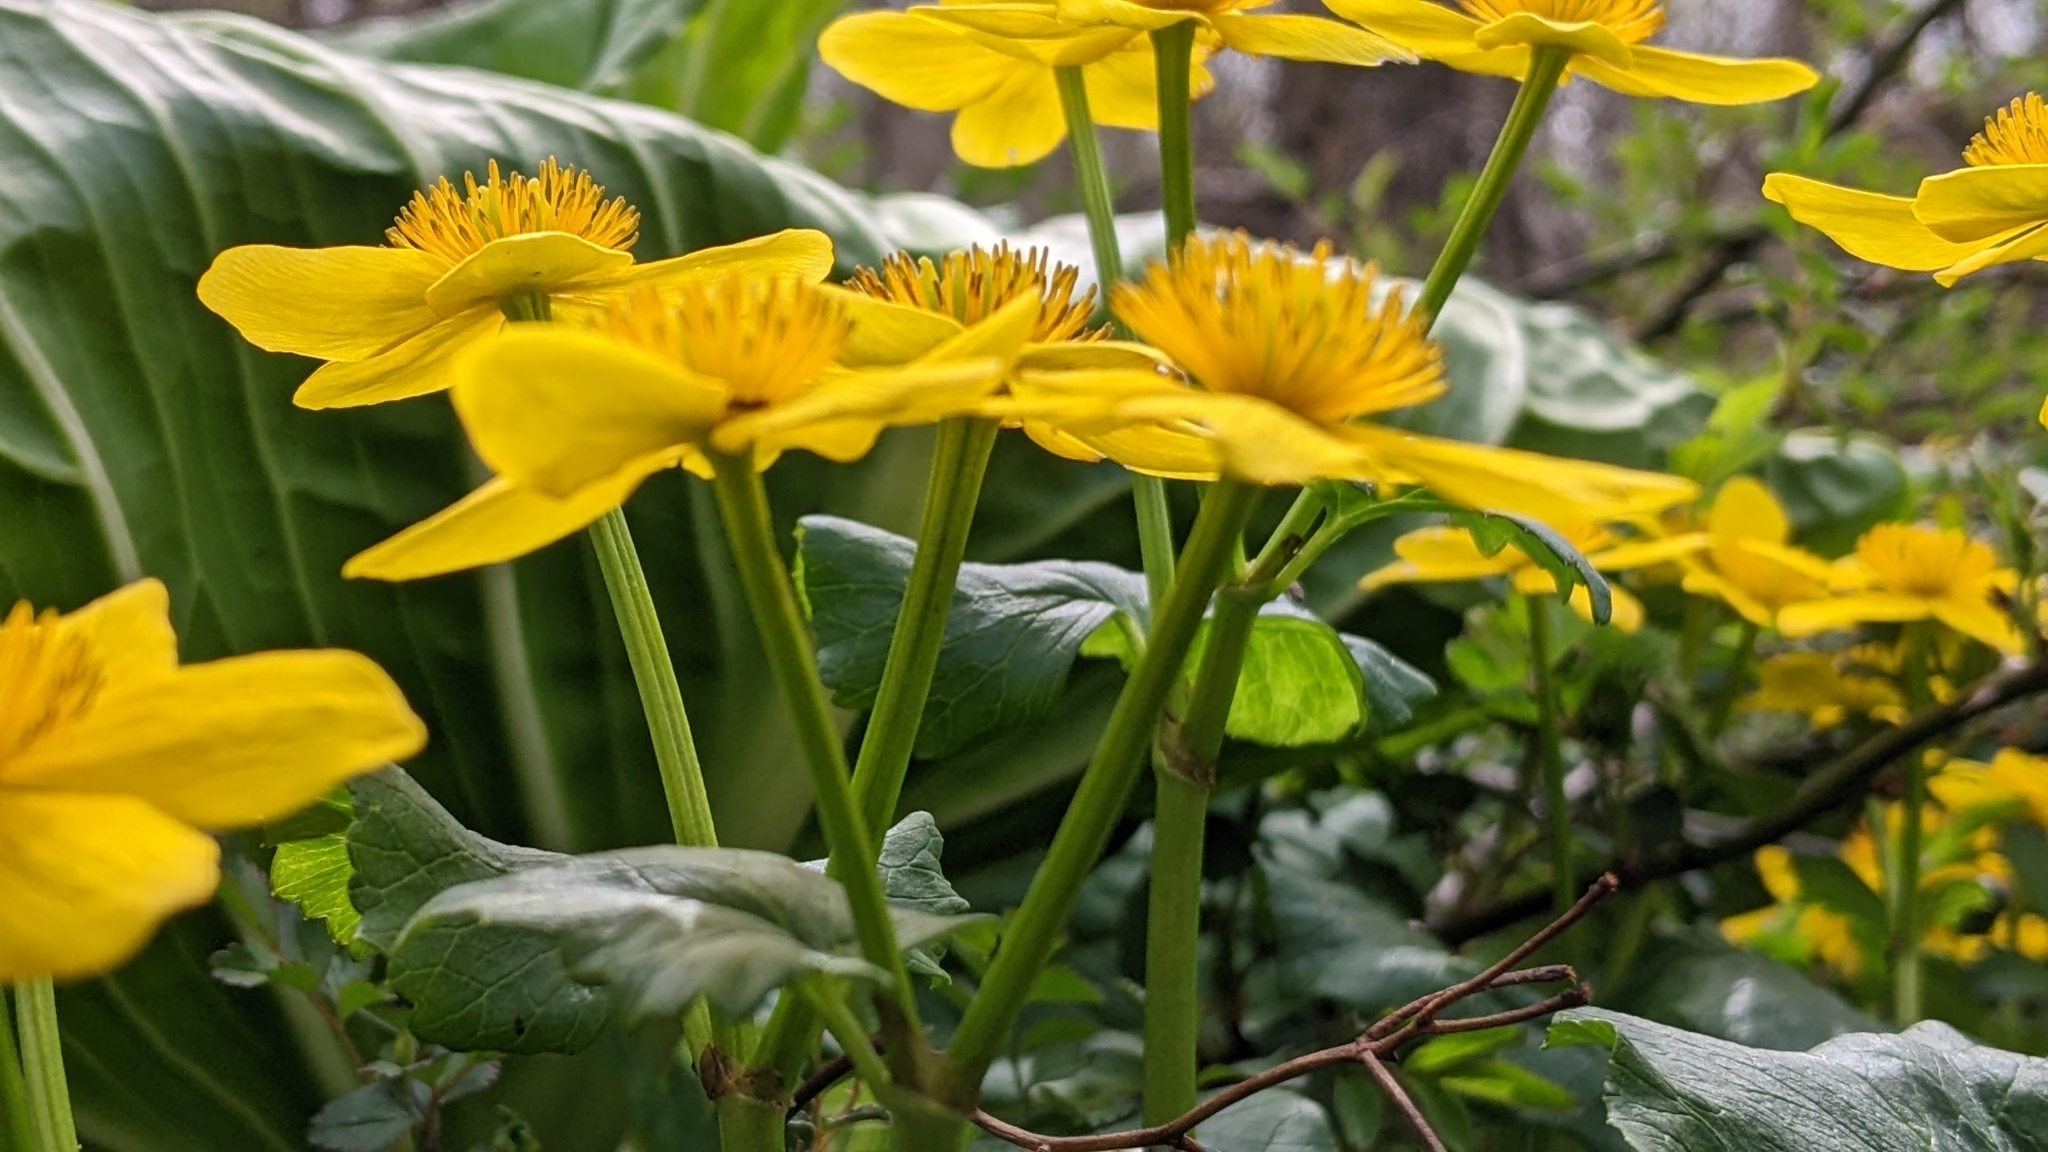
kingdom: Plantae
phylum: Tracheophyta
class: Magnoliopsida
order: Ranunculales
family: Ranunculaceae
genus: Caltha
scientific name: Caltha palustris
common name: Marsh marigold
